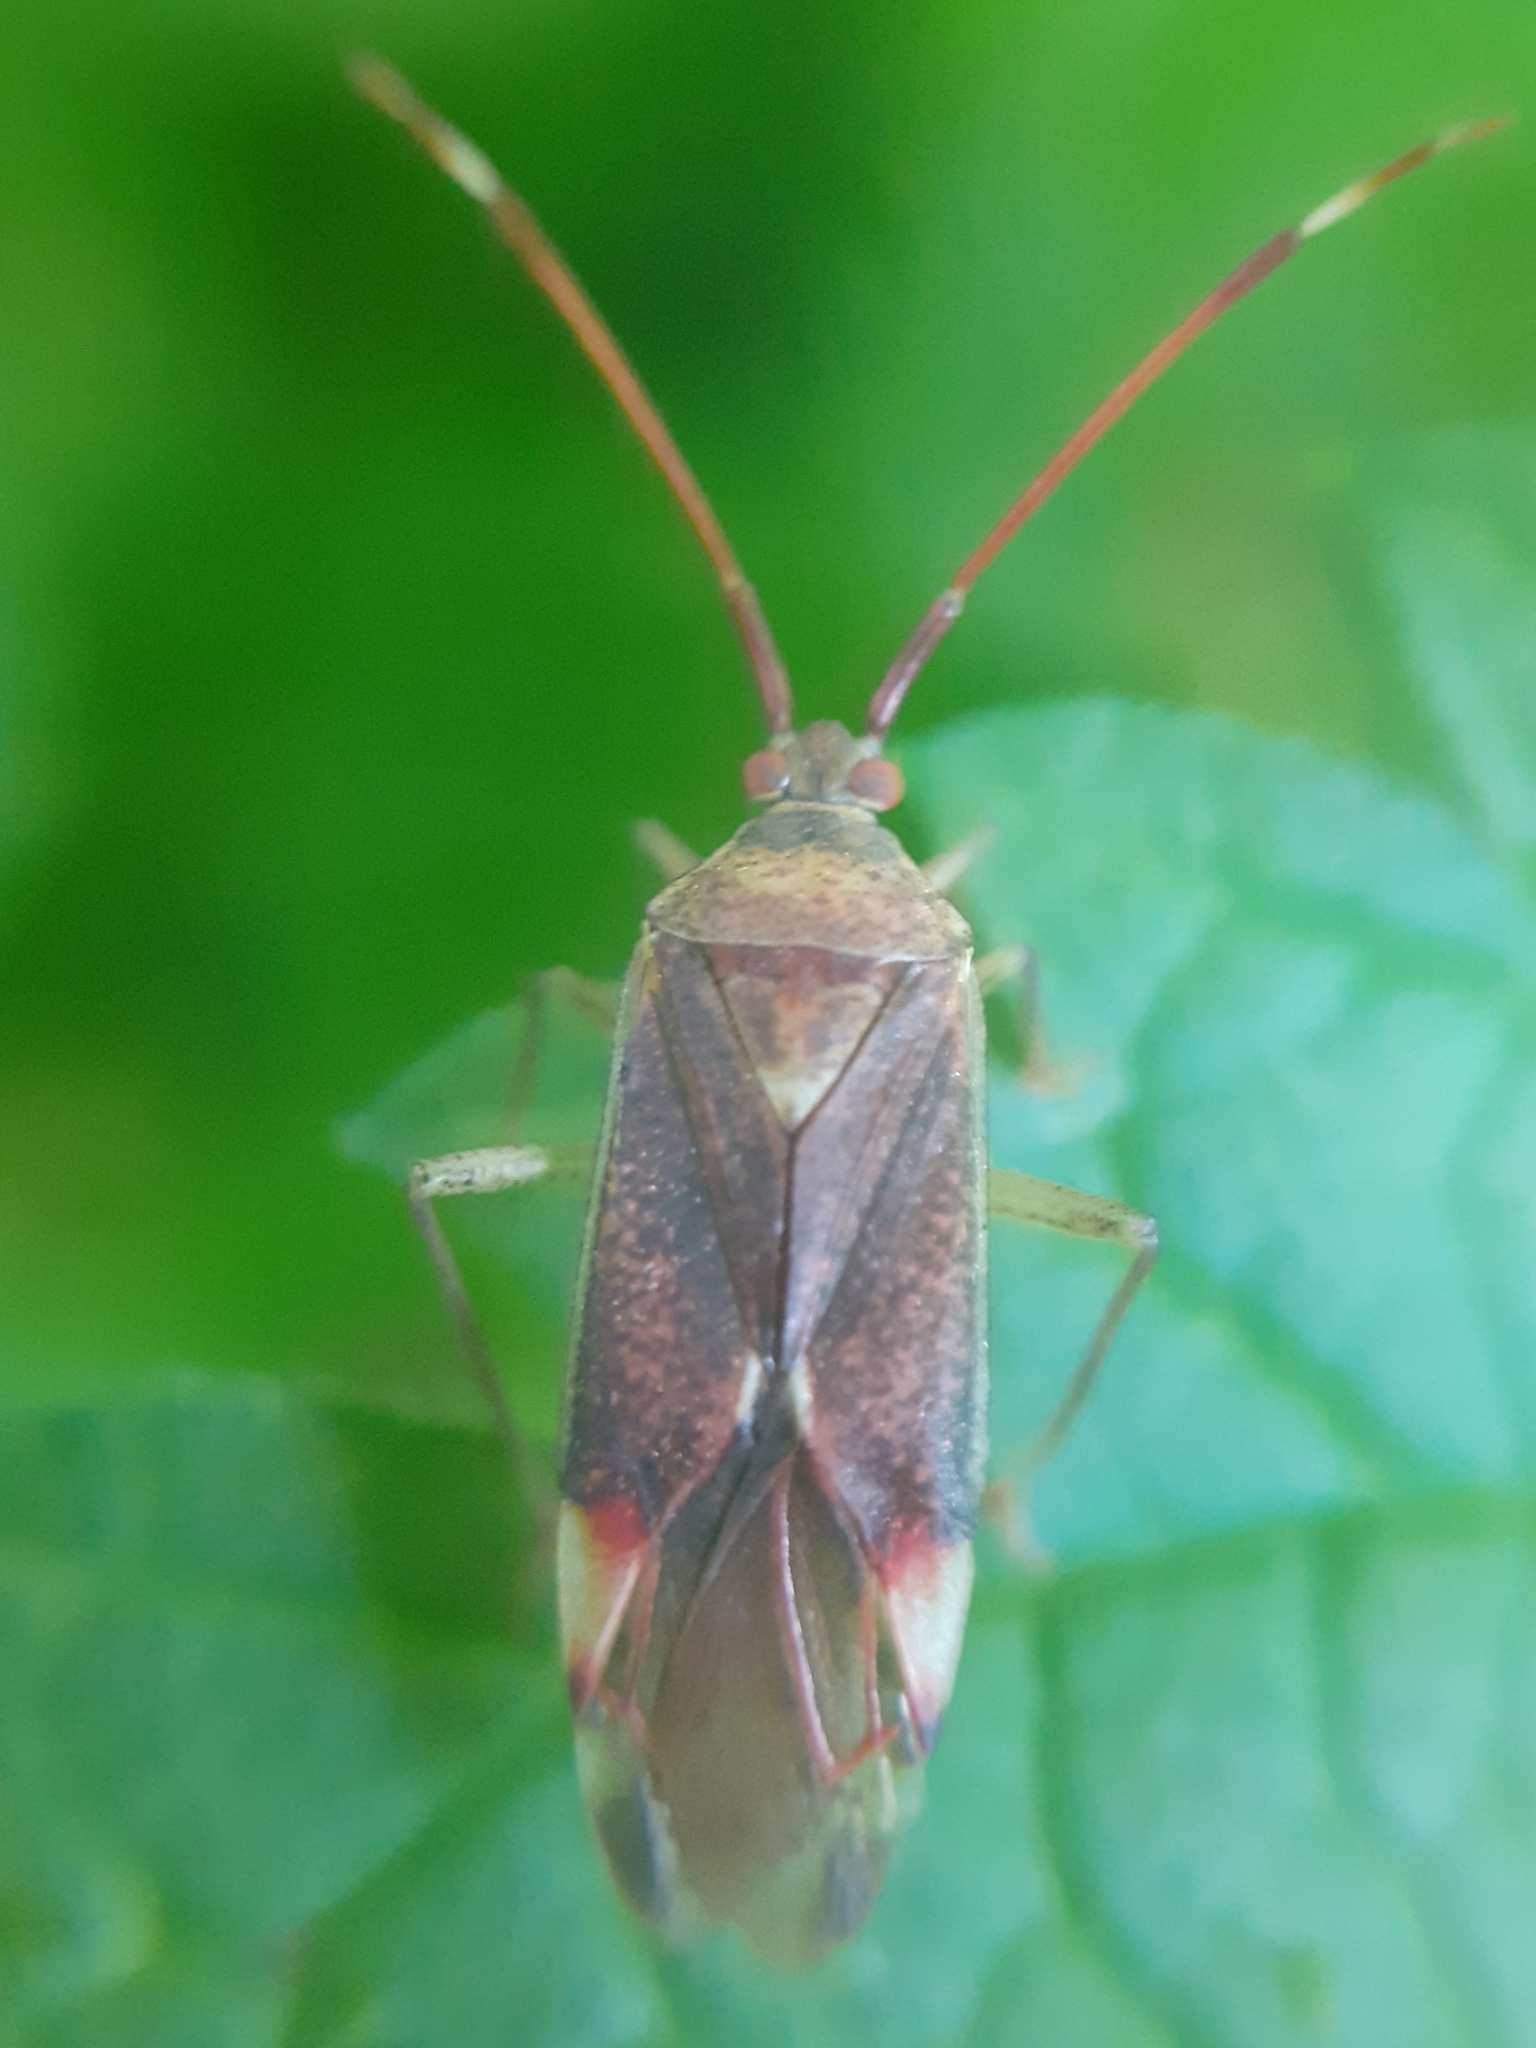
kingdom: Animalia
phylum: Arthropoda
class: Insecta
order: Hemiptera
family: Miridae
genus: Pantilius
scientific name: Pantilius tunicatus
